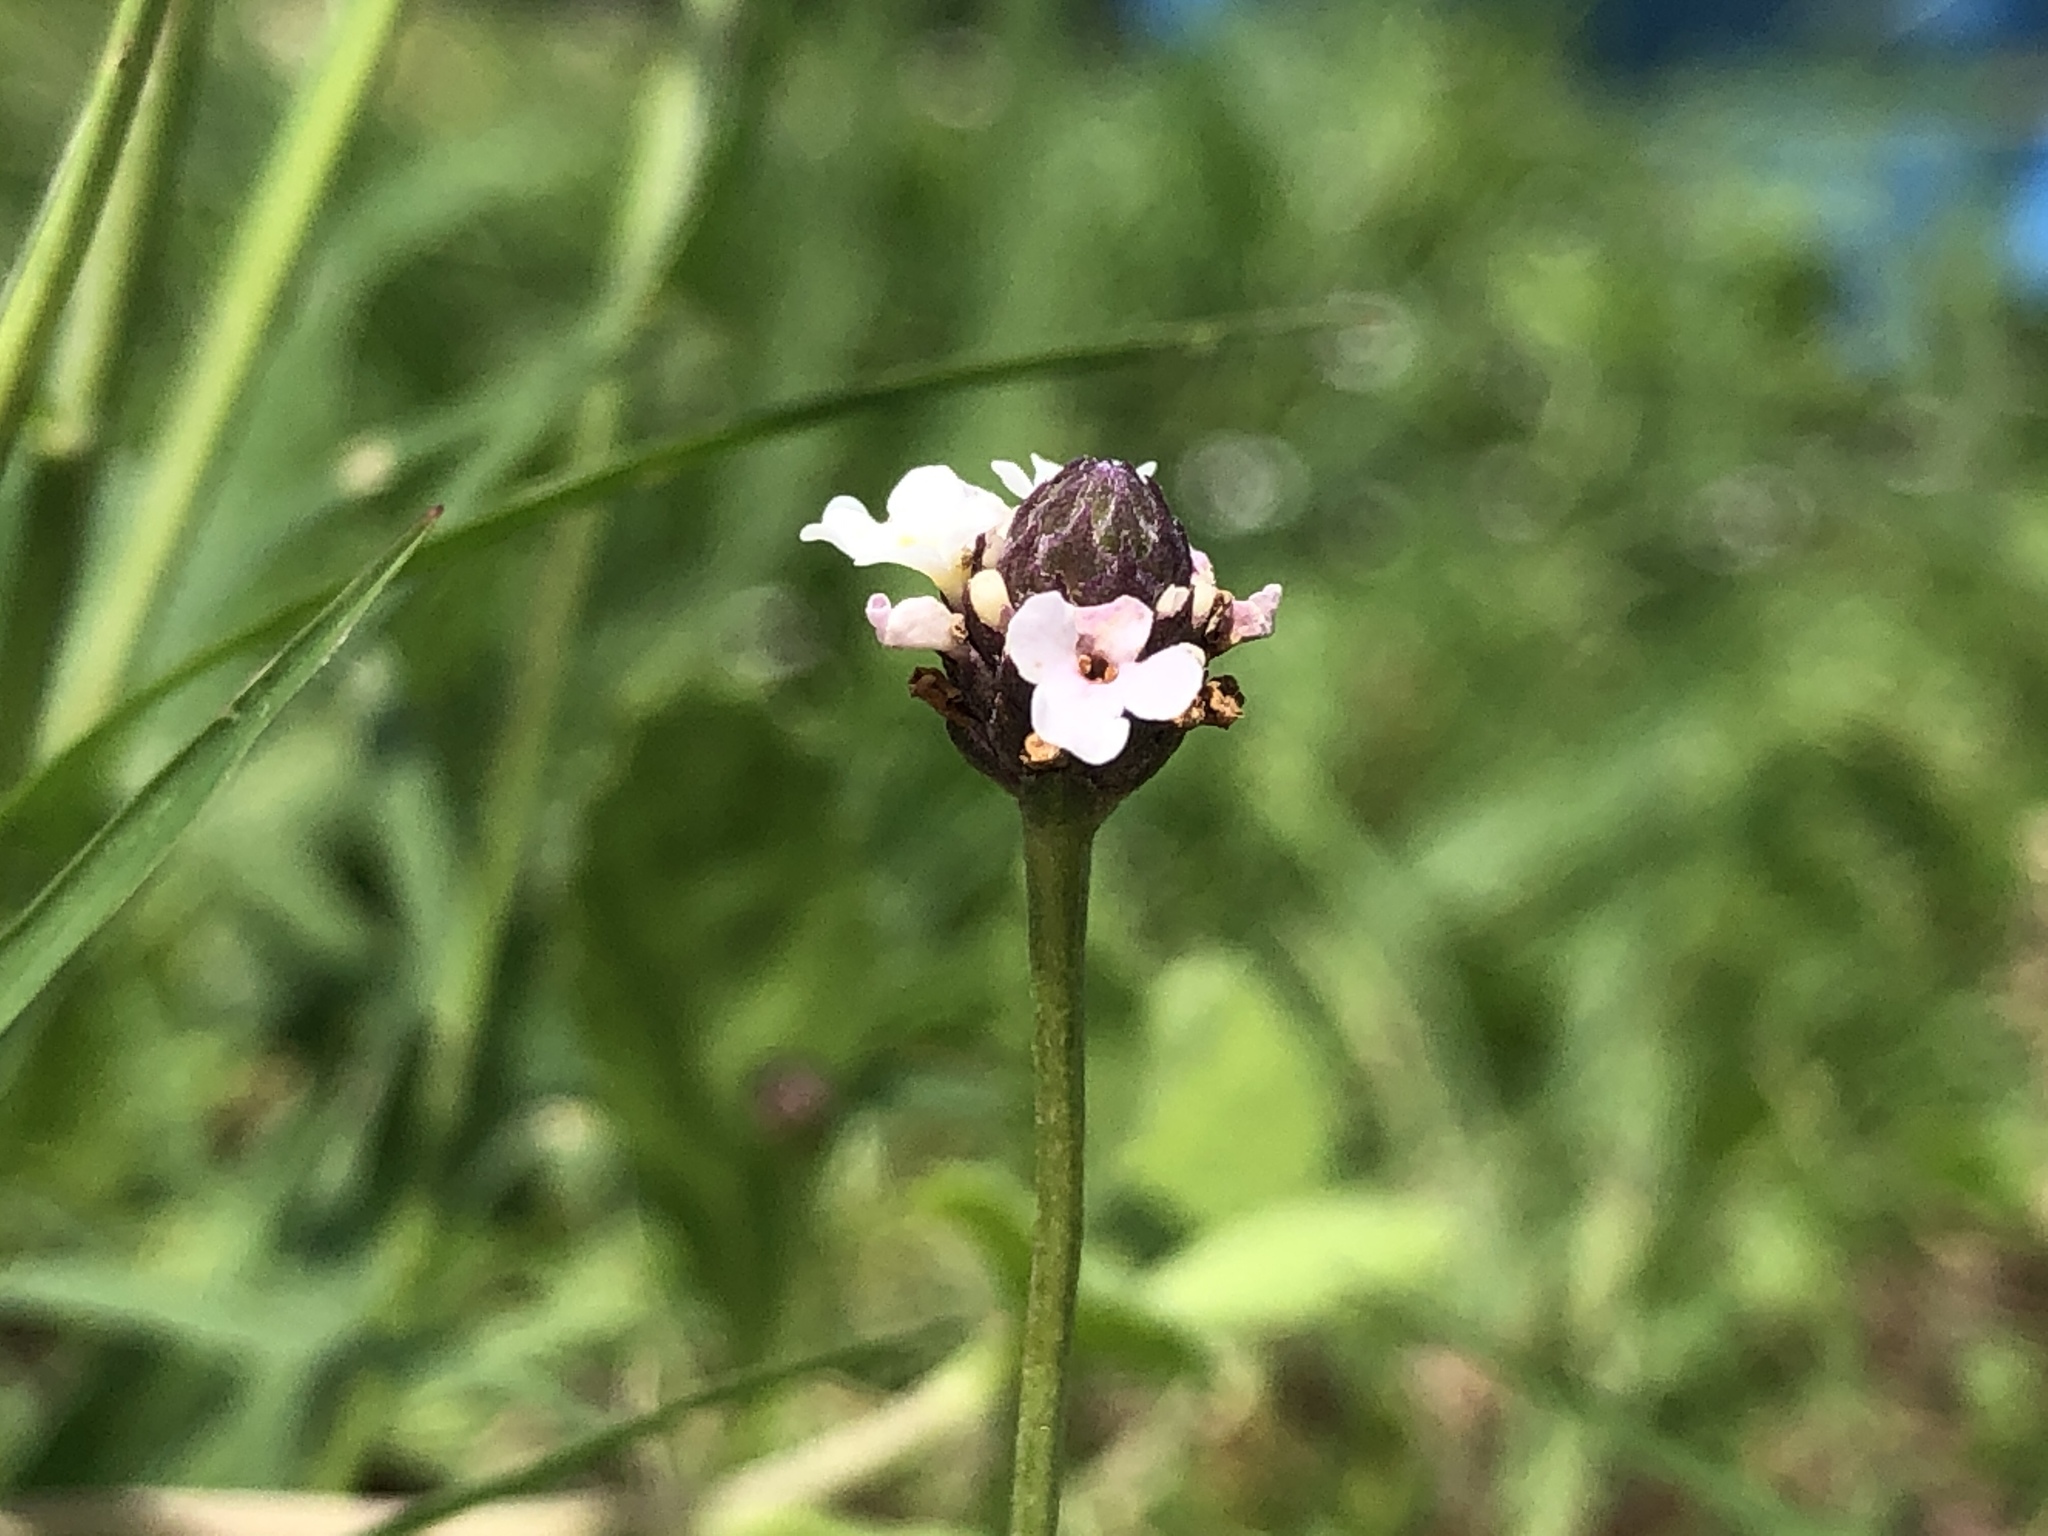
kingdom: Plantae
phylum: Tracheophyta
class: Magnoliopsida
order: Lamiales
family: Verbenaceae
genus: Phyla
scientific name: Phyla nodiflora
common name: Frogfruit
